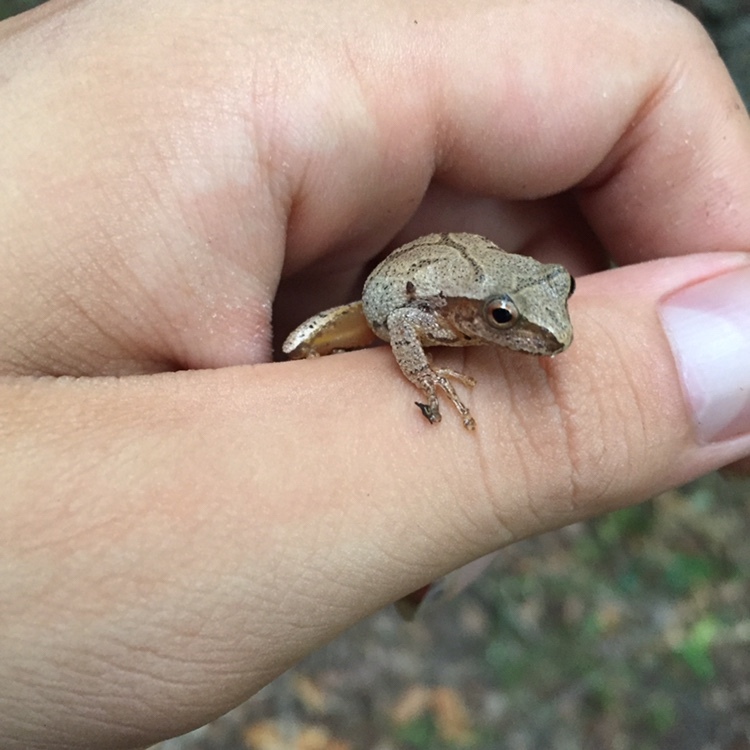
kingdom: Animalia
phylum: Chordata
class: Amphibia
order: Anura
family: Hylidae
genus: Pseudacris
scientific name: Pseudacris crucifer
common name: Spring peeper
